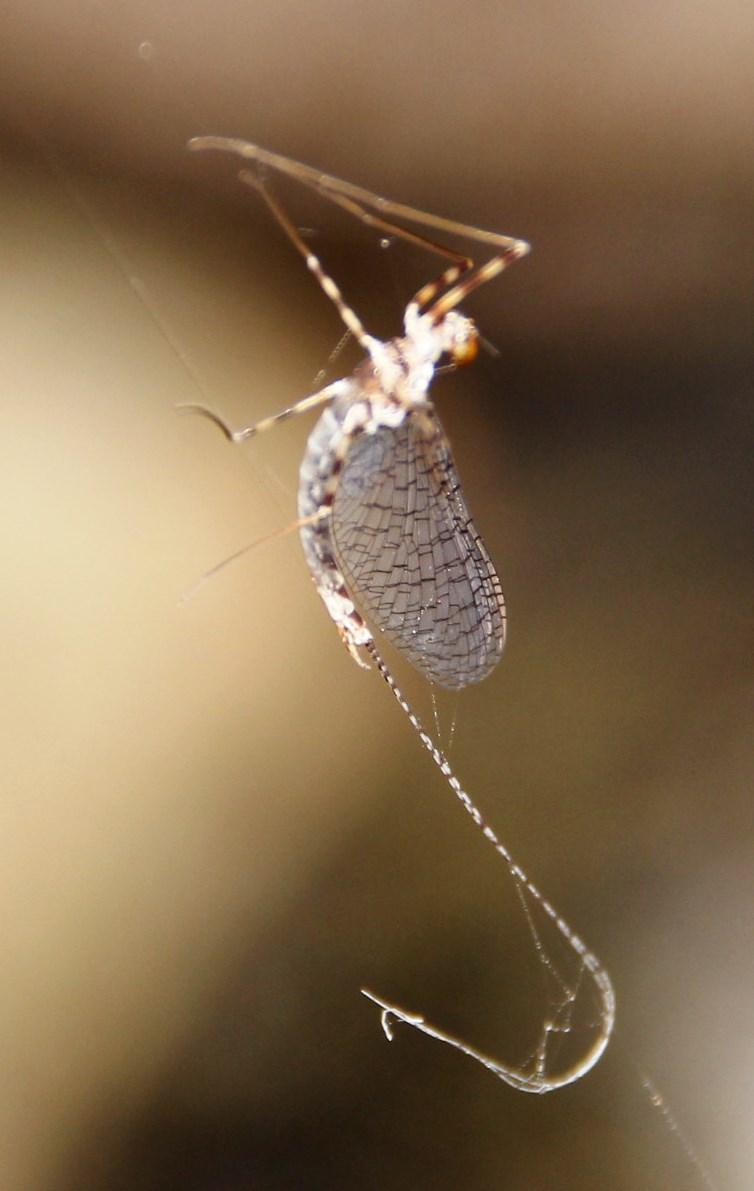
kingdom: Animalia
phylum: Arthropoda
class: Insecta
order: Ephemeroptera
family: Leptophlebiidae
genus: Aprionyx
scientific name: Aprionyx peterseni
